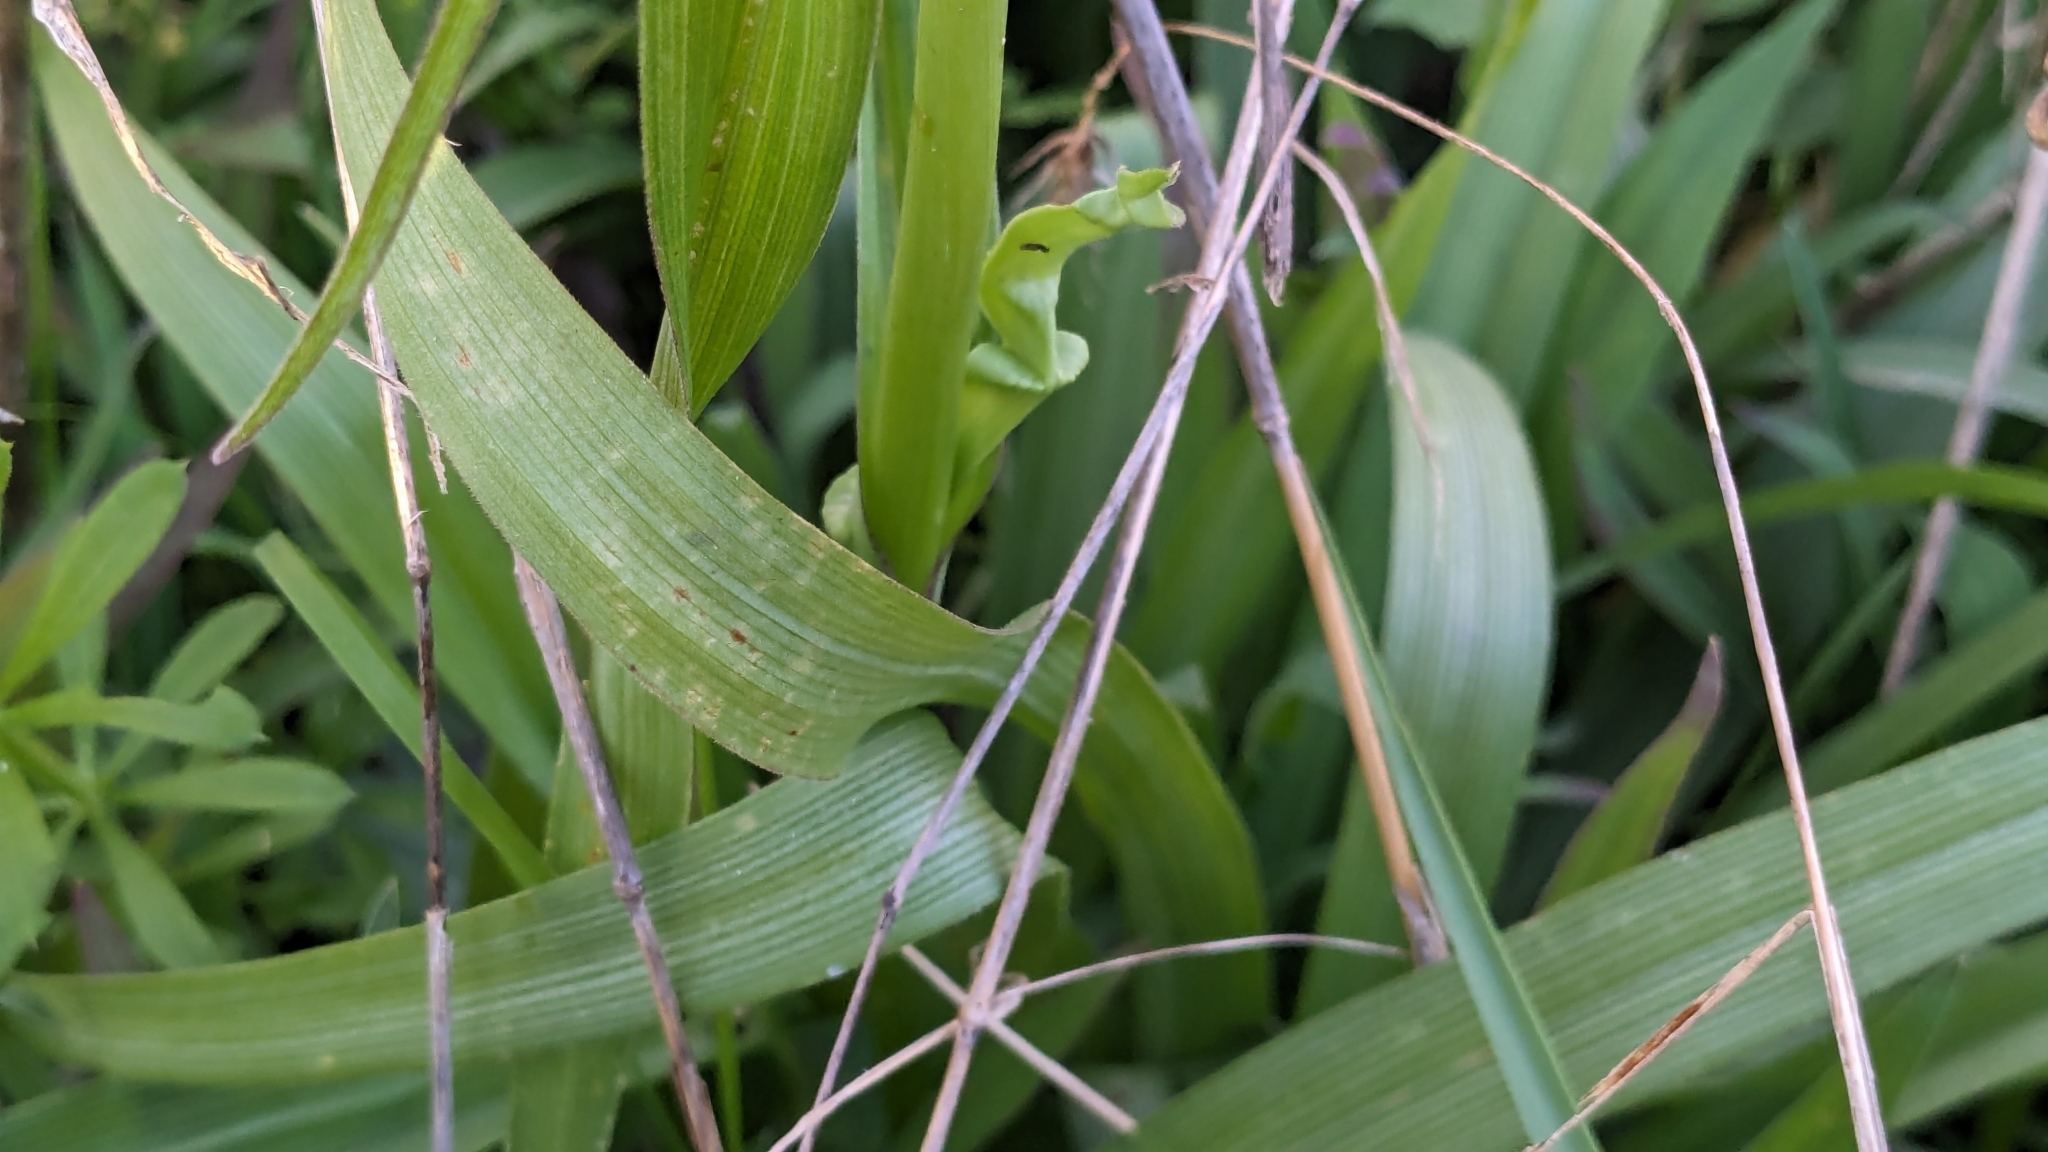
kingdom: Plantae
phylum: Tracheophyta
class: Liliopsida
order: Commelinales
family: Commelinaceae
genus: Tradescantia
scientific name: Tradescantia gigantea
